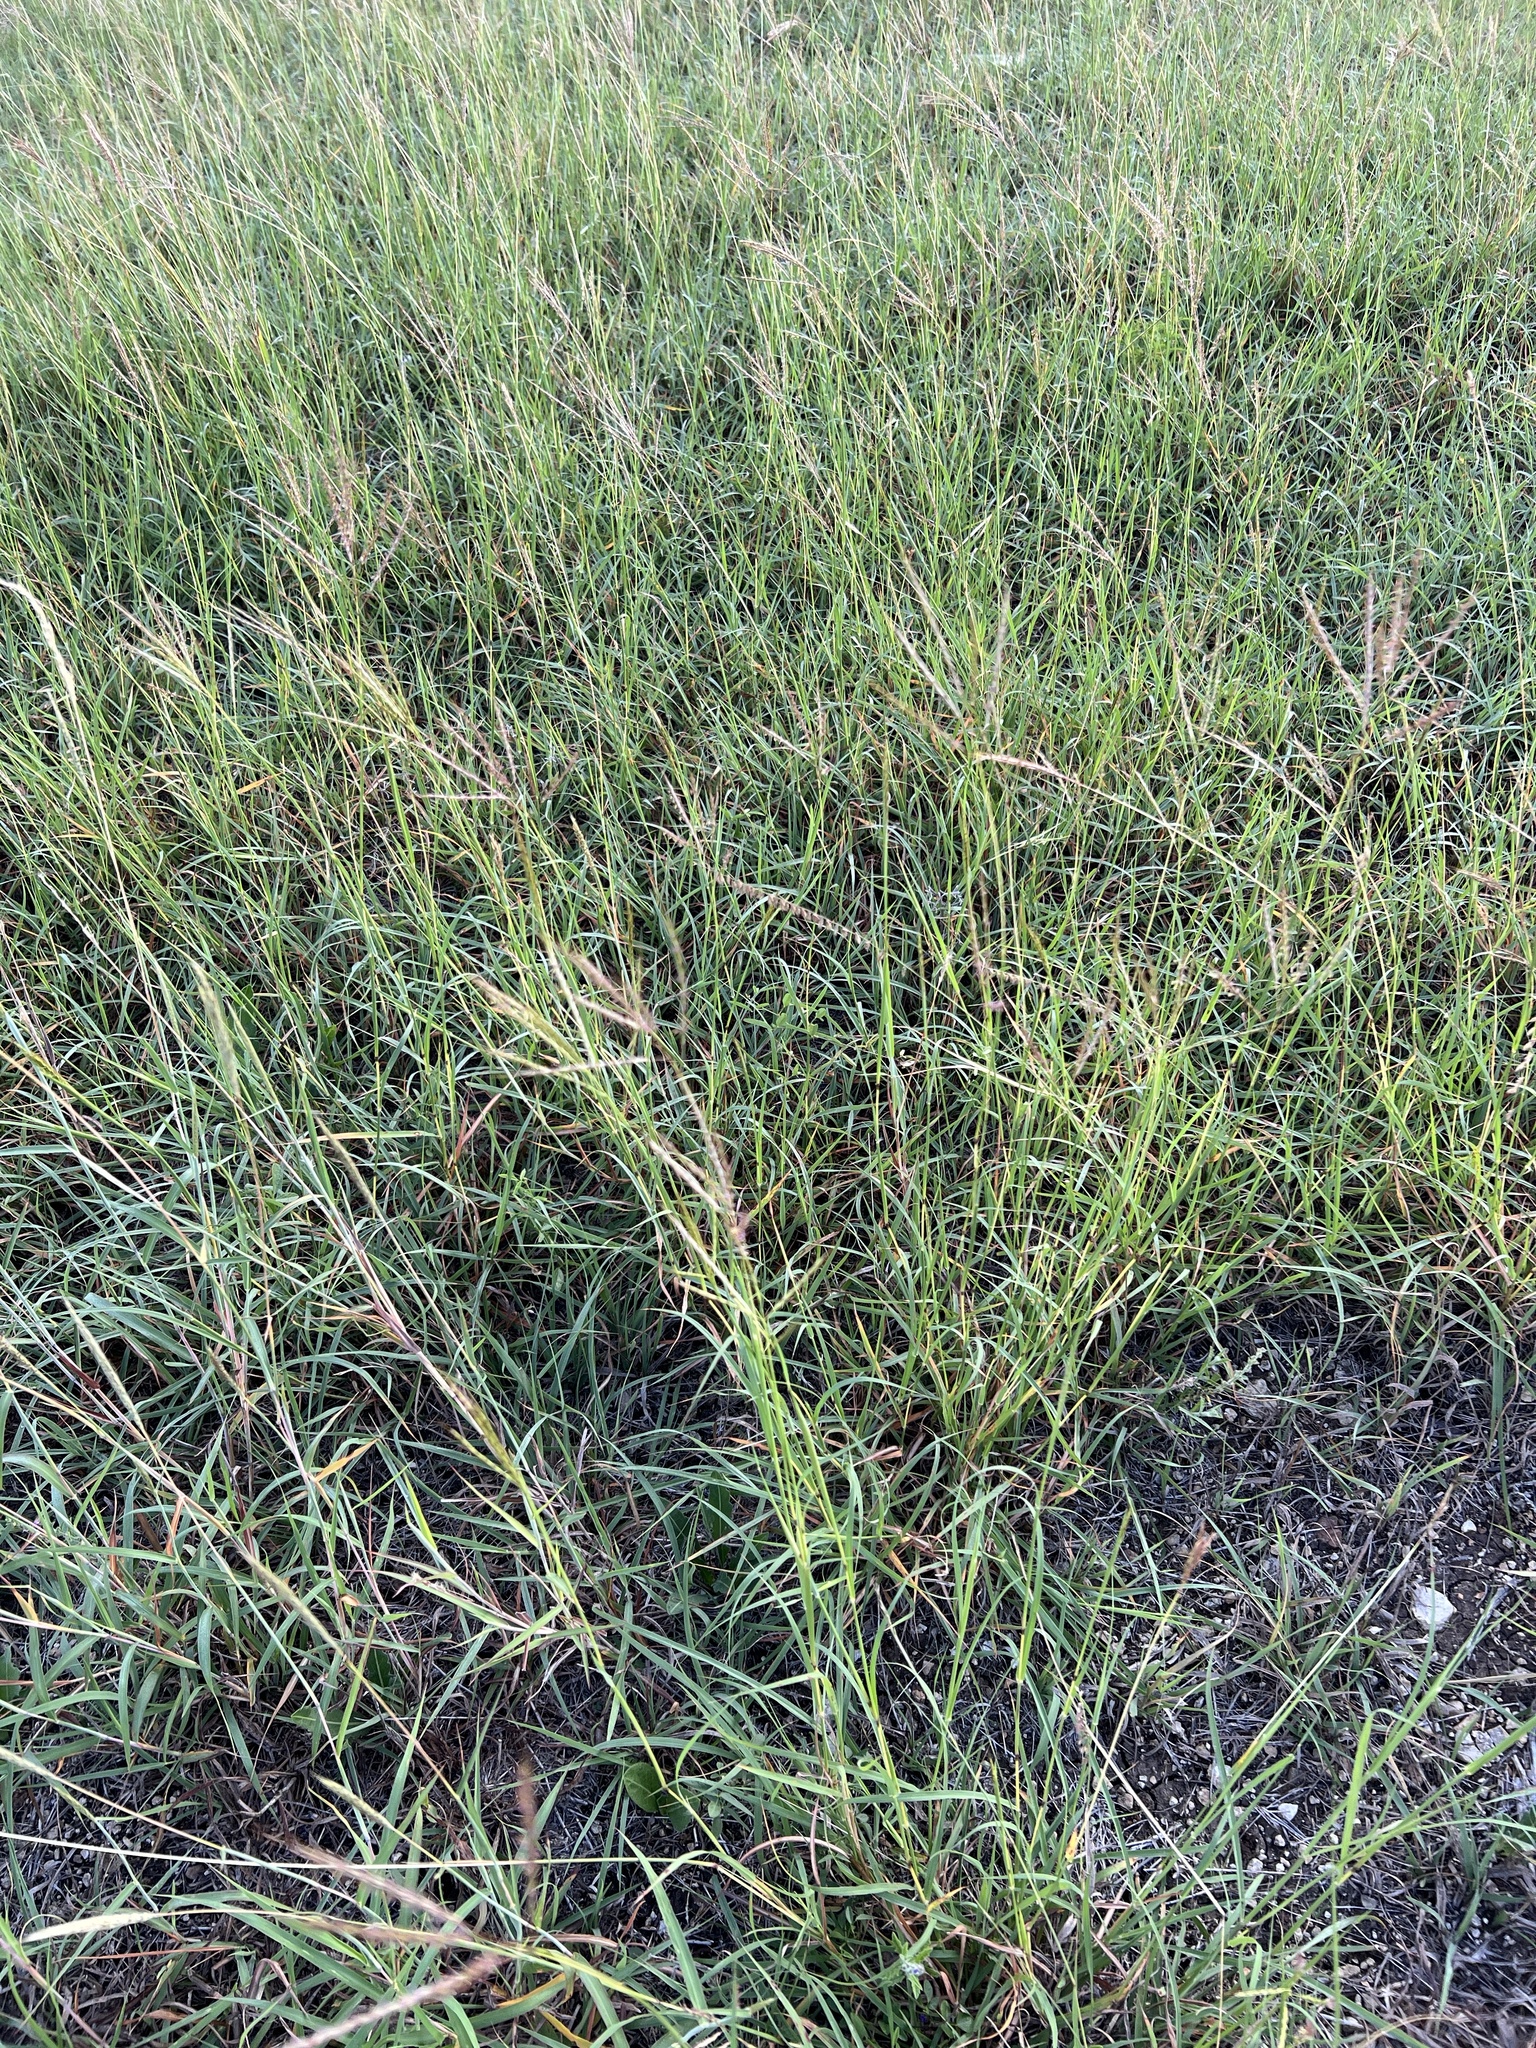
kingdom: Plantae
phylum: Tracheophyta
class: Liliopsida
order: Poales
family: Poaceae
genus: Bothriochloa
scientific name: Bothriochloa ischaemum
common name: Yellow bluestem
